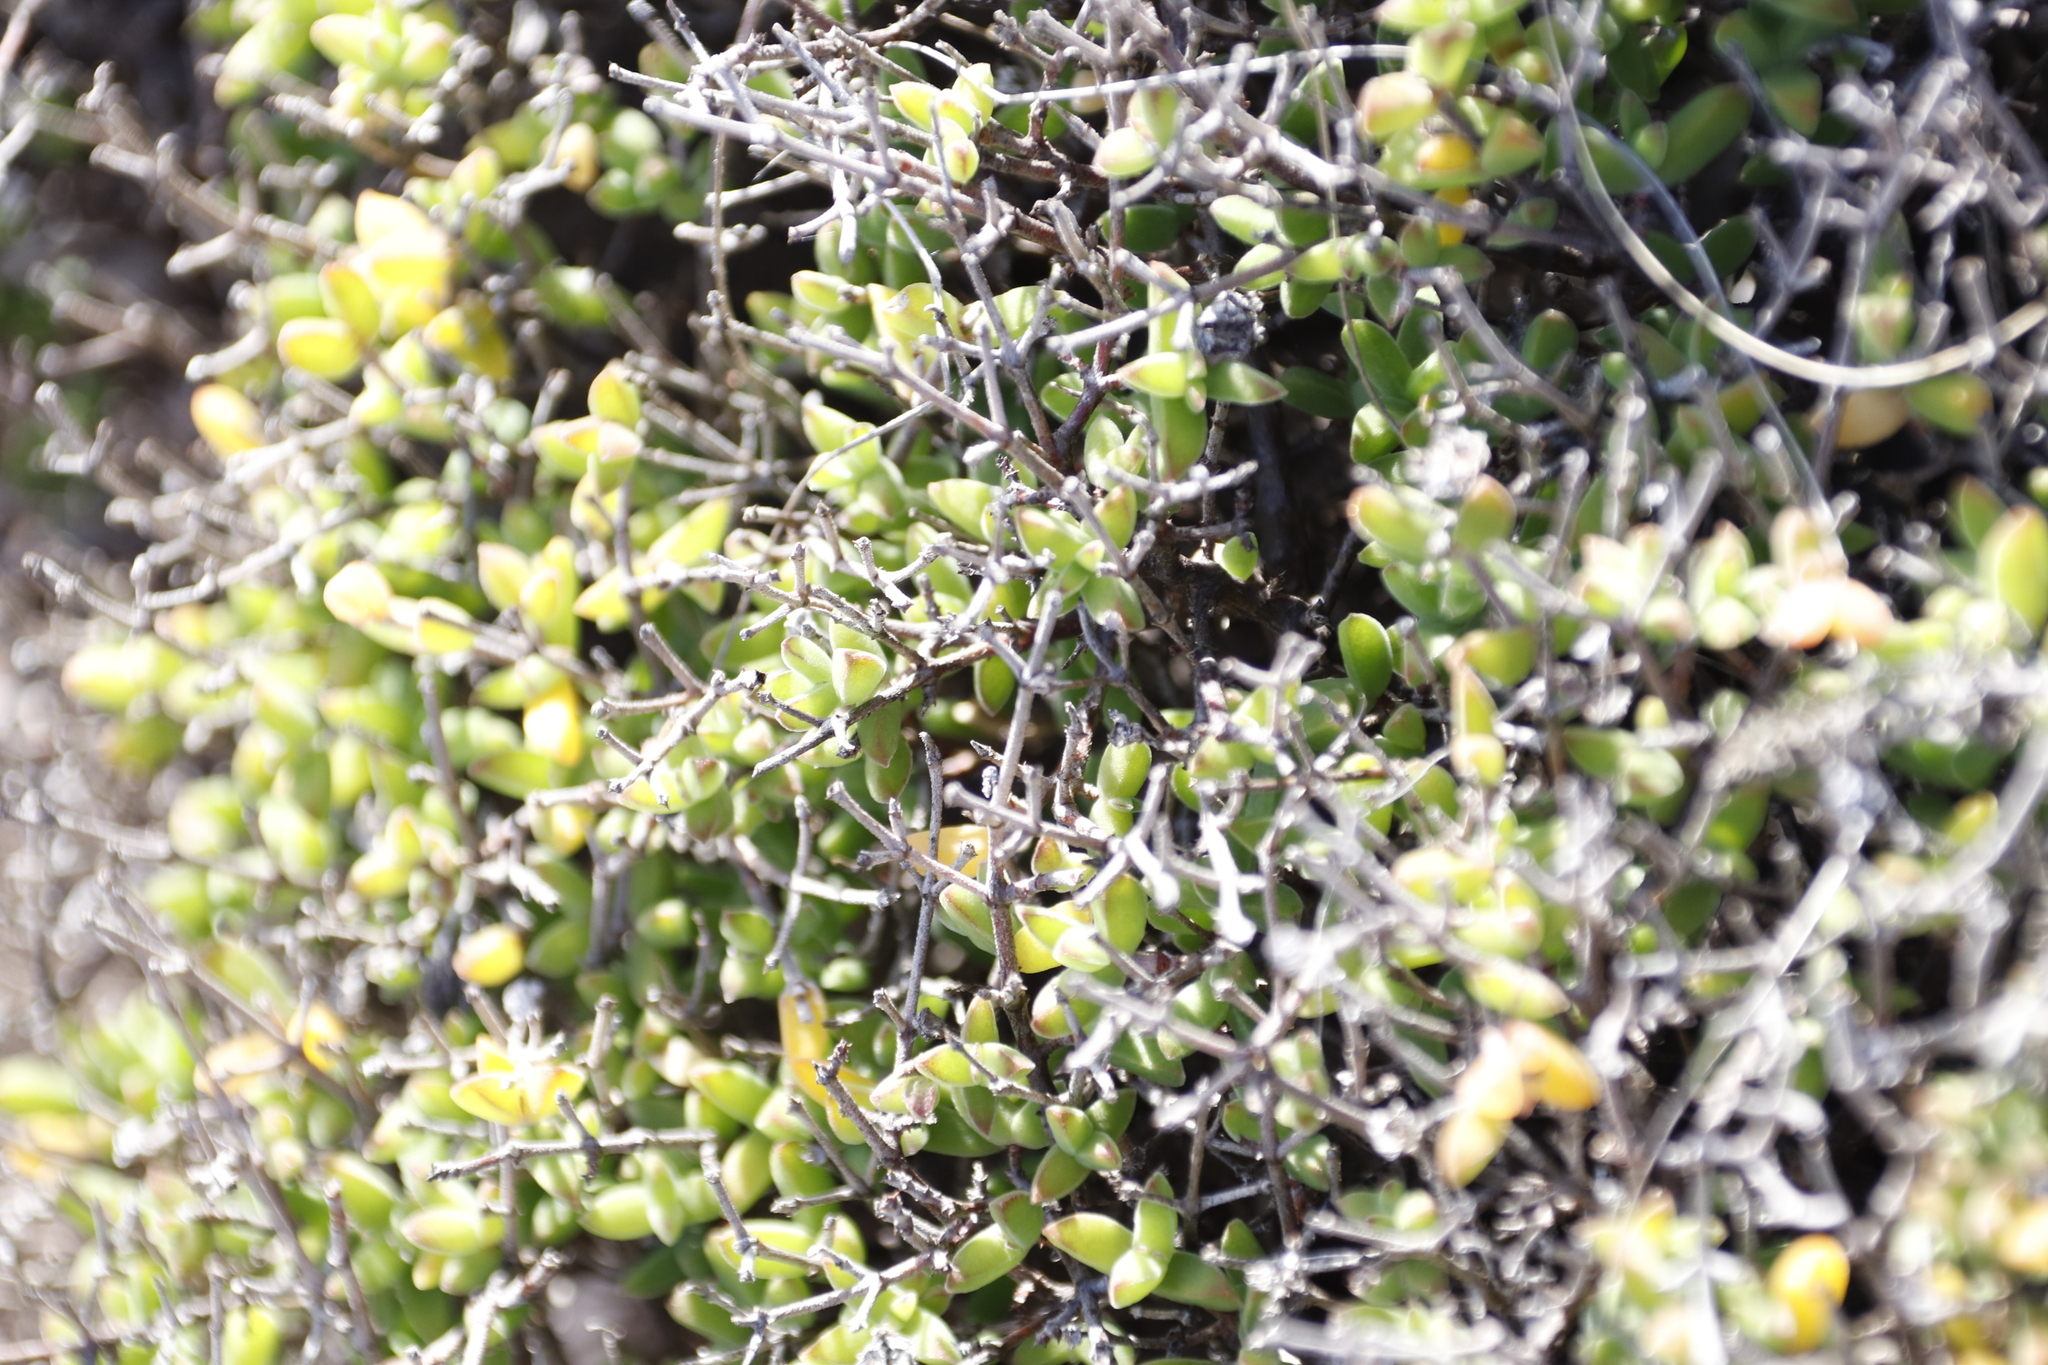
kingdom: Plantae
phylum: Tracheophyta
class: Magnoliopsida
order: Caryophyllales
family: Aizoaceae
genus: Drosanthemum
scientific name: Drosanthemum parvifolium
